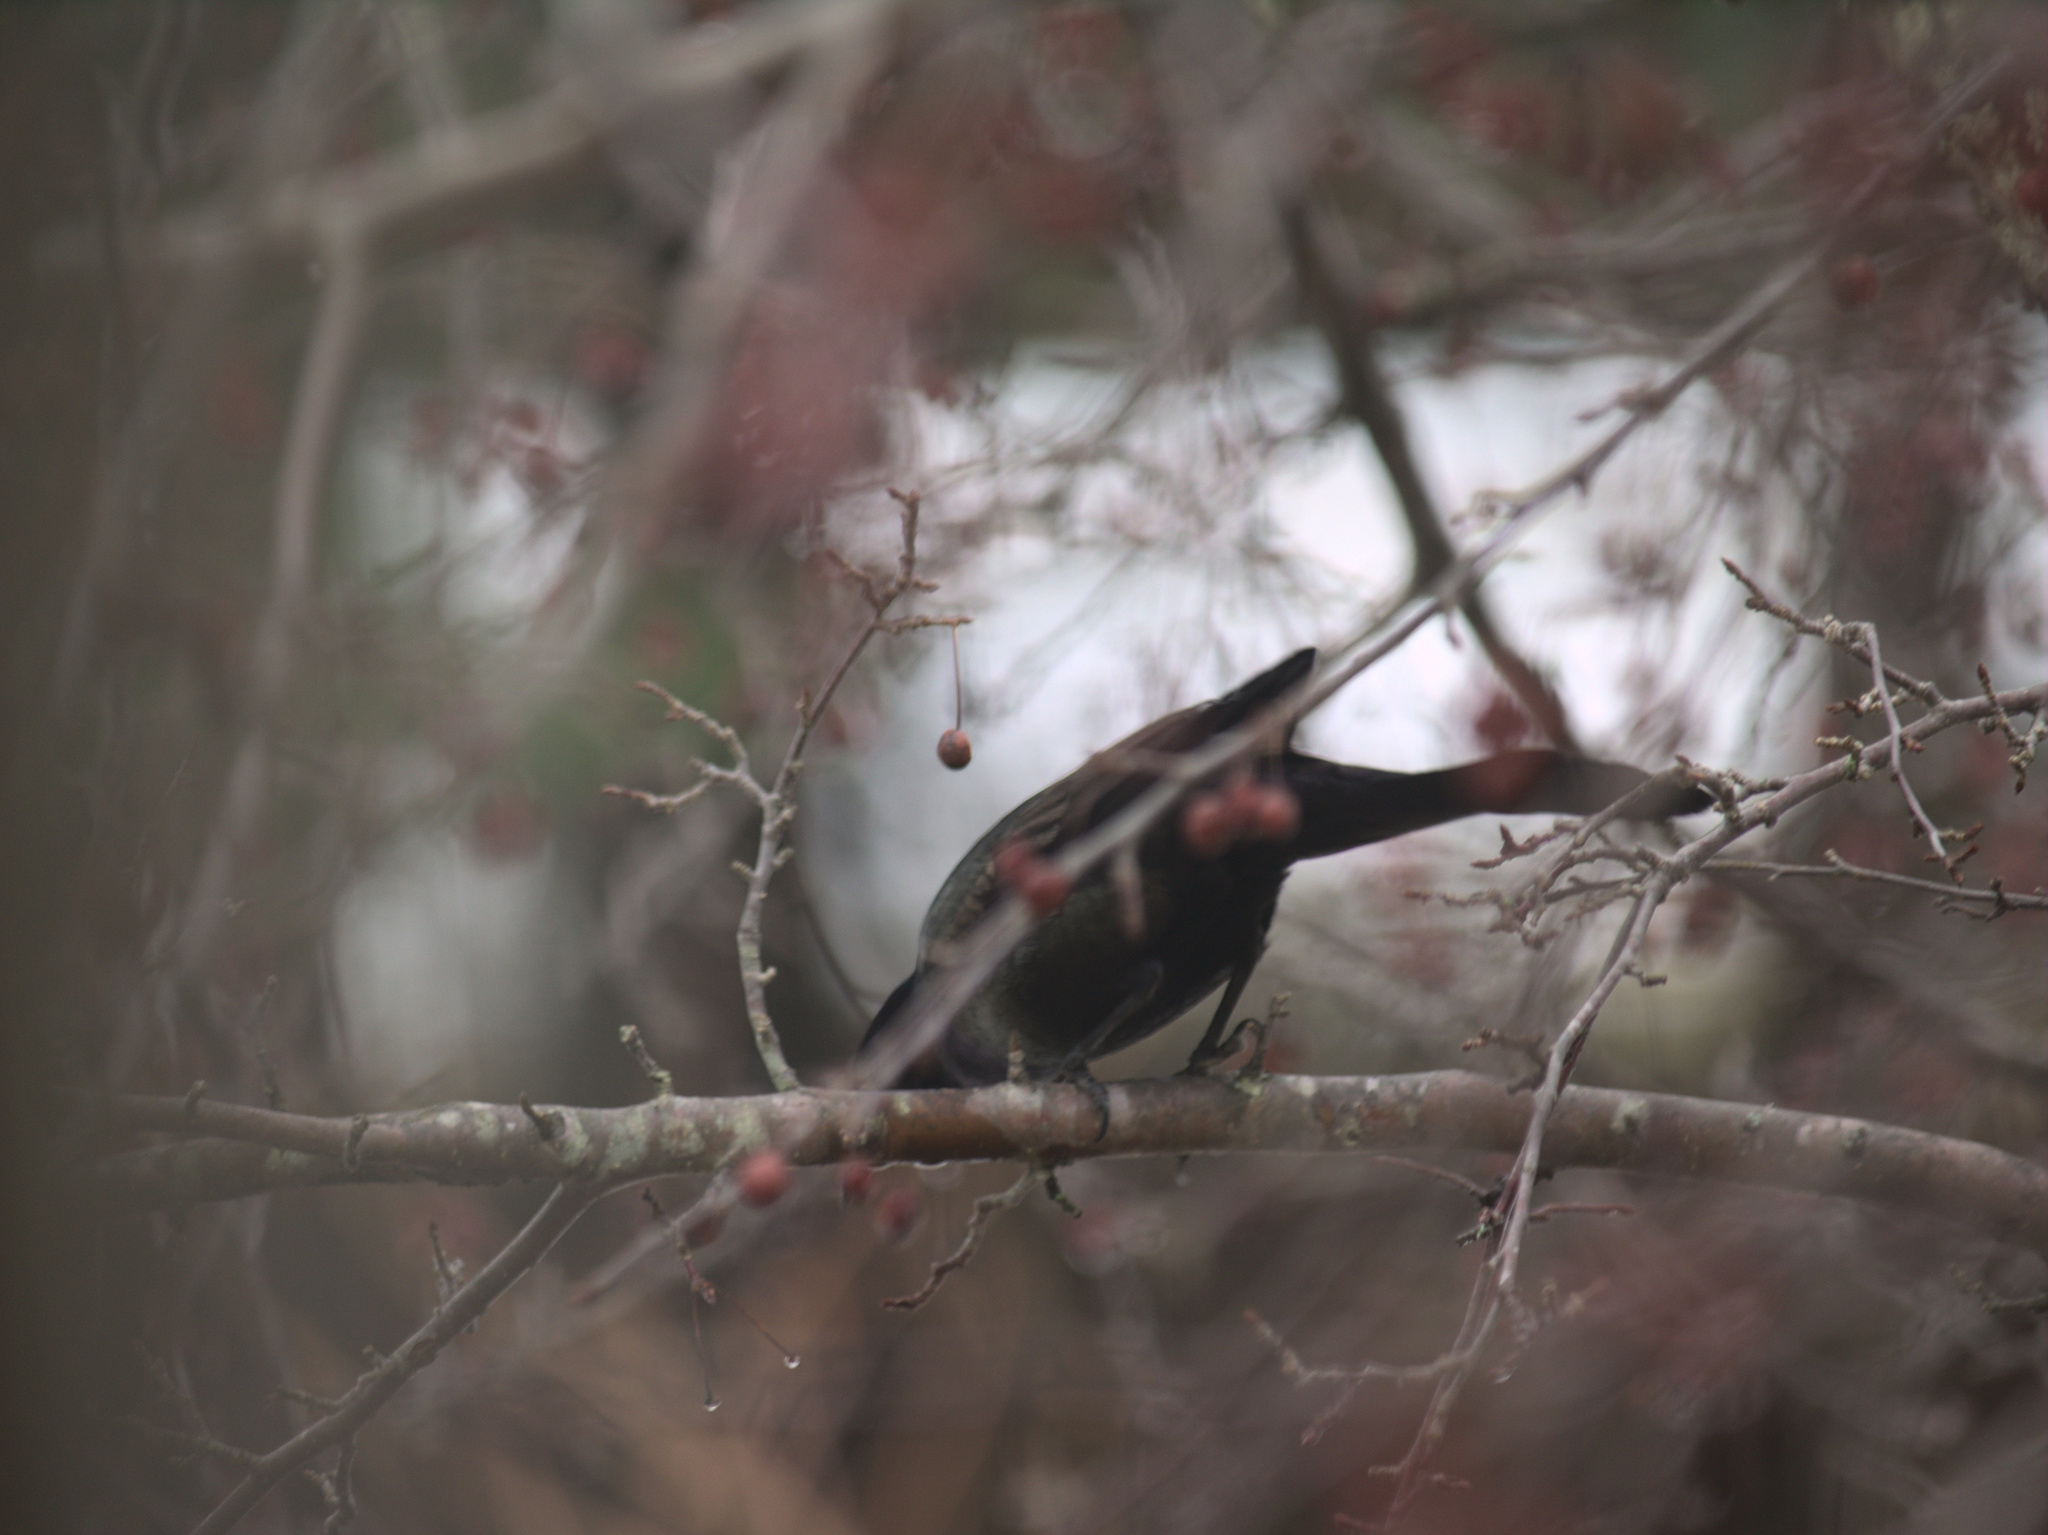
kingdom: Animalia
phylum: Chordata
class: Aves
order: Passeriformes
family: Icteridae
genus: Quiscalus
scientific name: Quiscalus quiscula
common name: Common grackle
